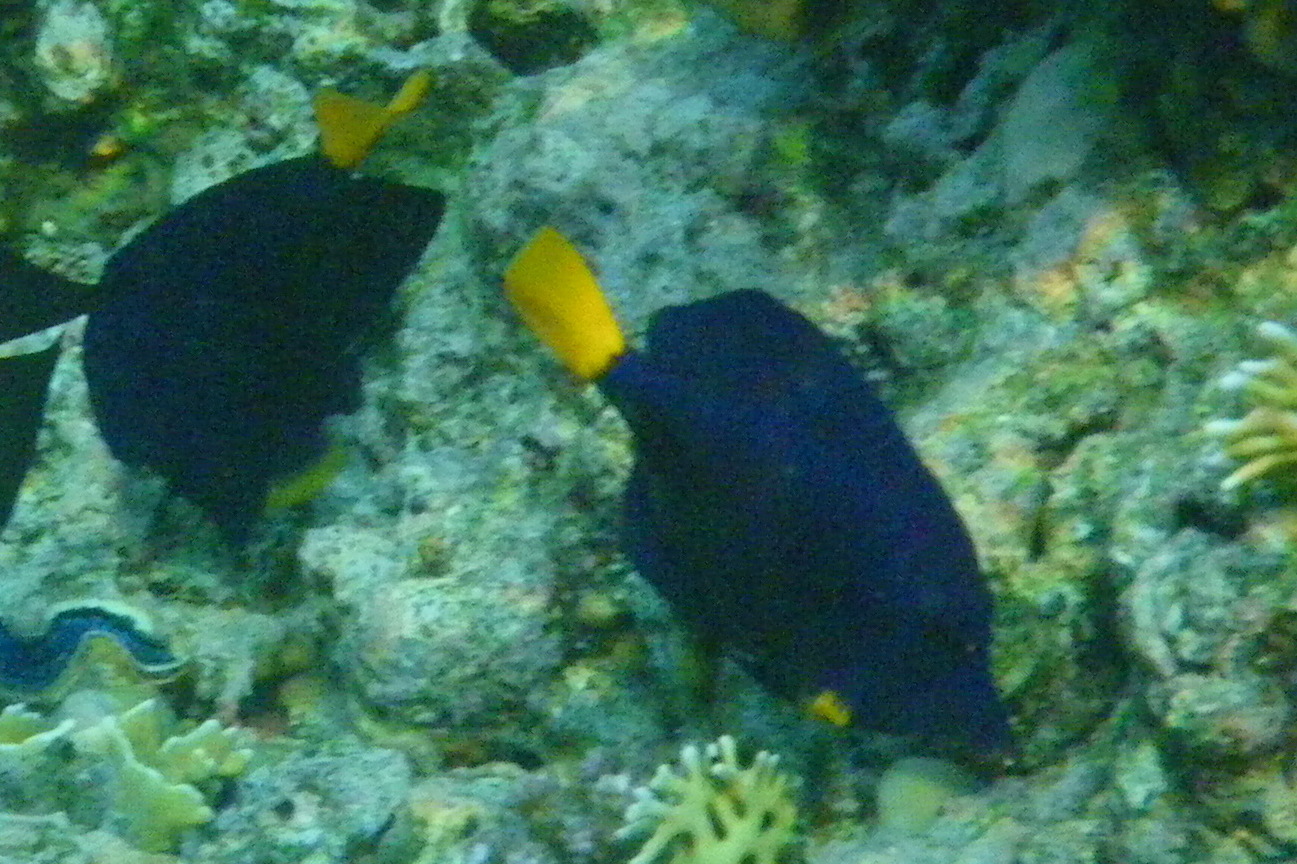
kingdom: Animalia
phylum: Chordata
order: Perciformes
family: Acanthuridae
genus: Zebrasoma
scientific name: Zebrasoma xanthurum
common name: Purple tang
